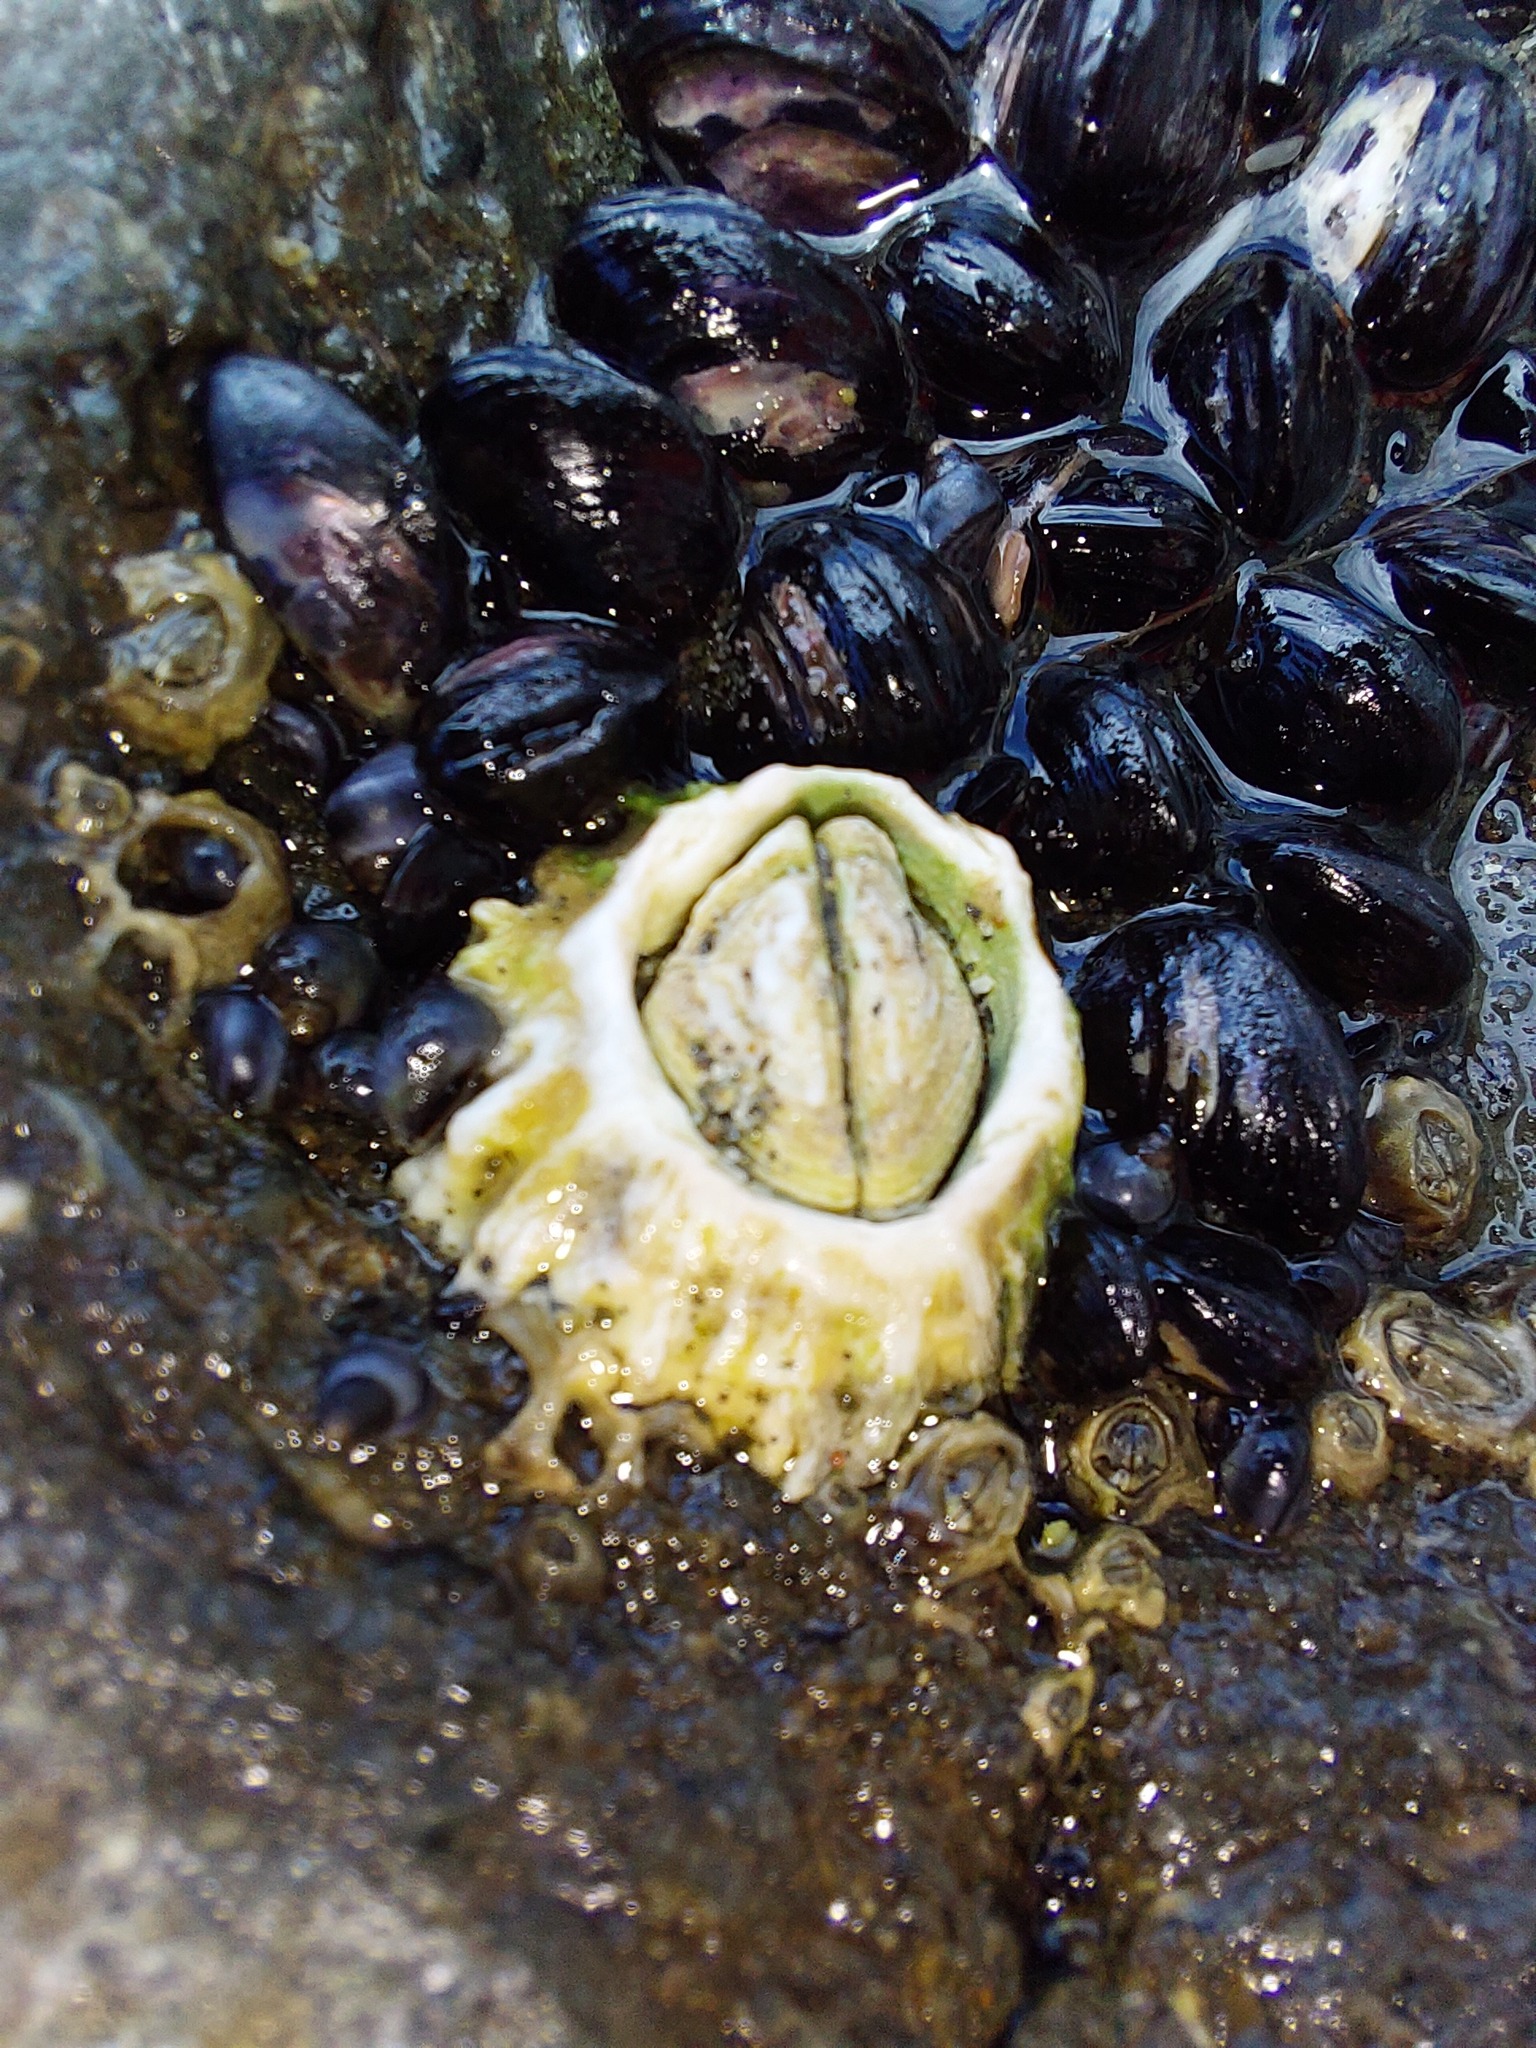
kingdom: Animalia
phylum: Arthropoda
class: Maxillopoda
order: Sessilia
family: Tetraclitidae
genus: Epopella
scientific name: Epopella plicata
